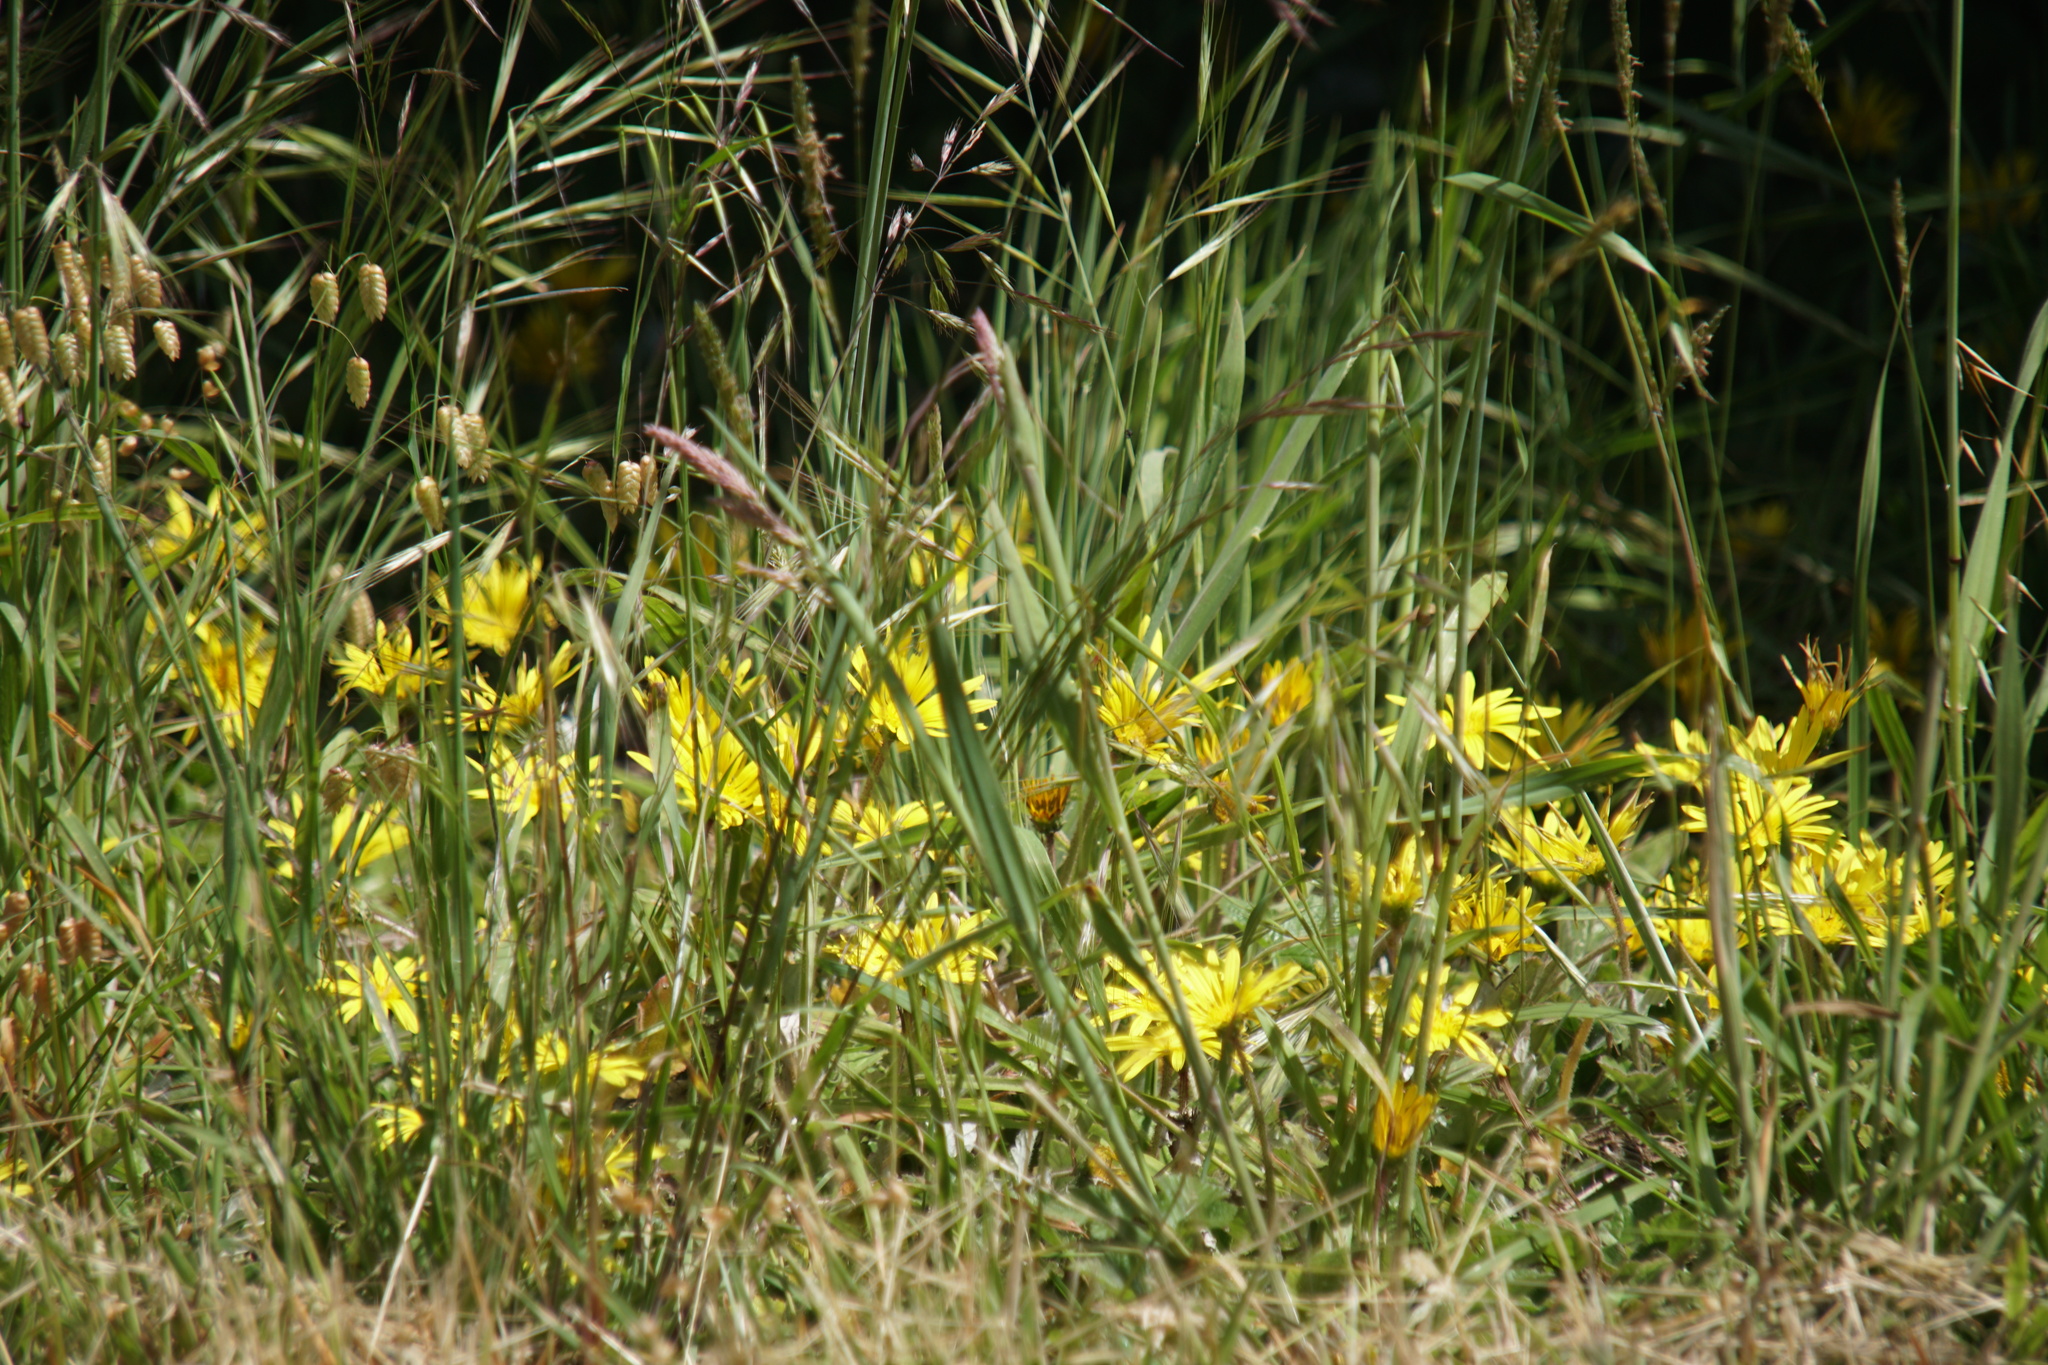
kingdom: Plantae
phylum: Tracheophyta
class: Magnoliopsida
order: Asterales
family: Asteraceae
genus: Arctotheca
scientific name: Arctotheca prostrata
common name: Capeweed
